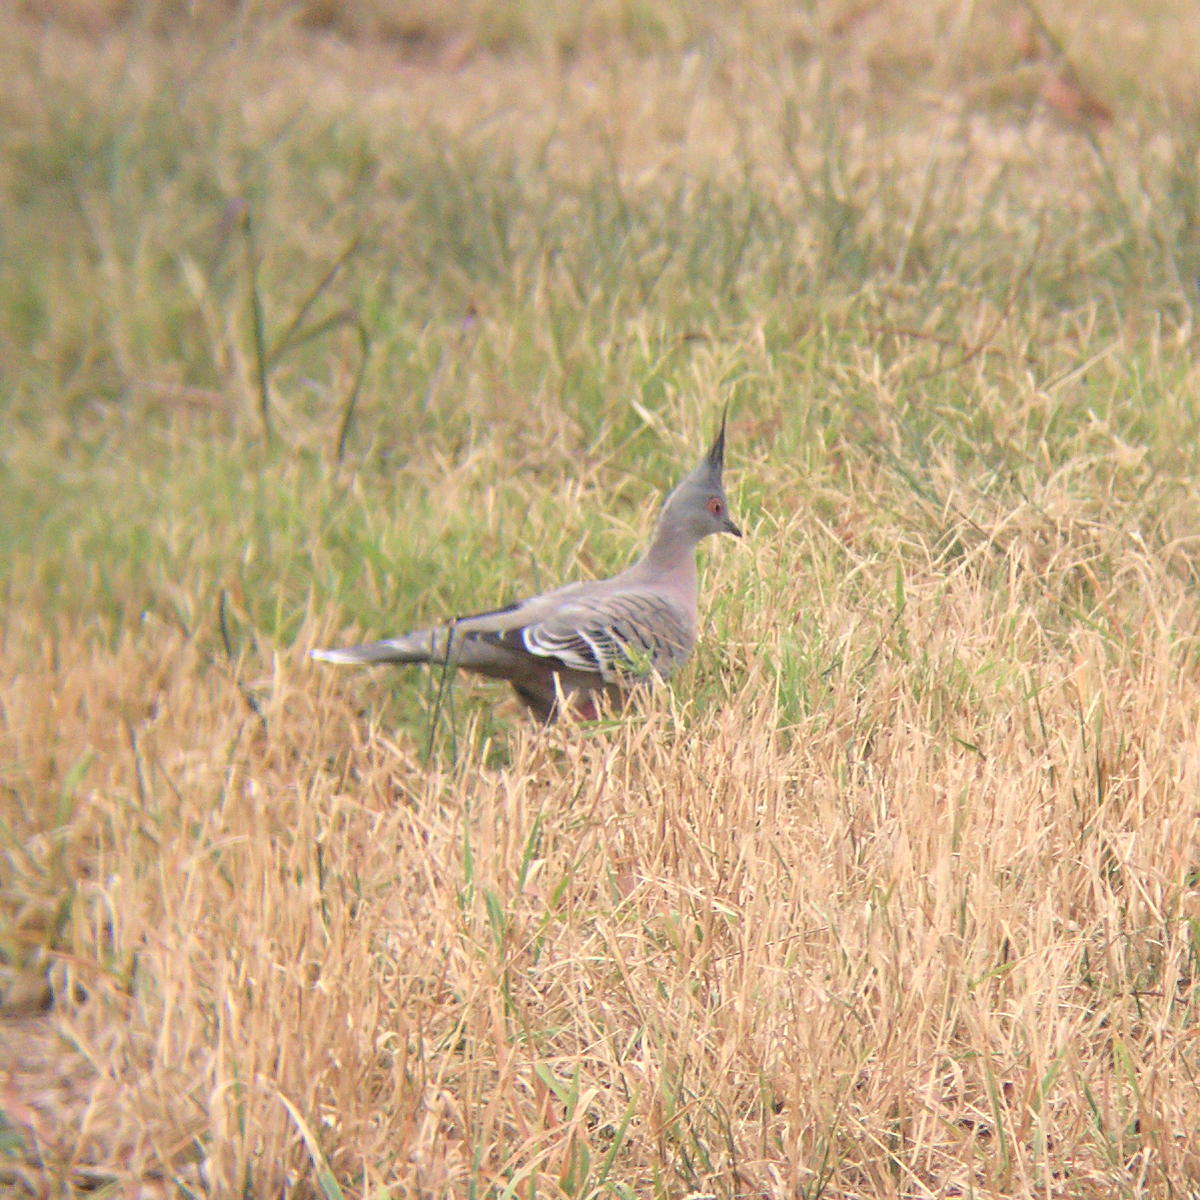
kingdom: Animalia
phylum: Chordata
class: Aves
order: Columbiformes
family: Columbidae
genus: Ocyphaps
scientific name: Ocyphaps lophotes
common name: Crested pigeon
